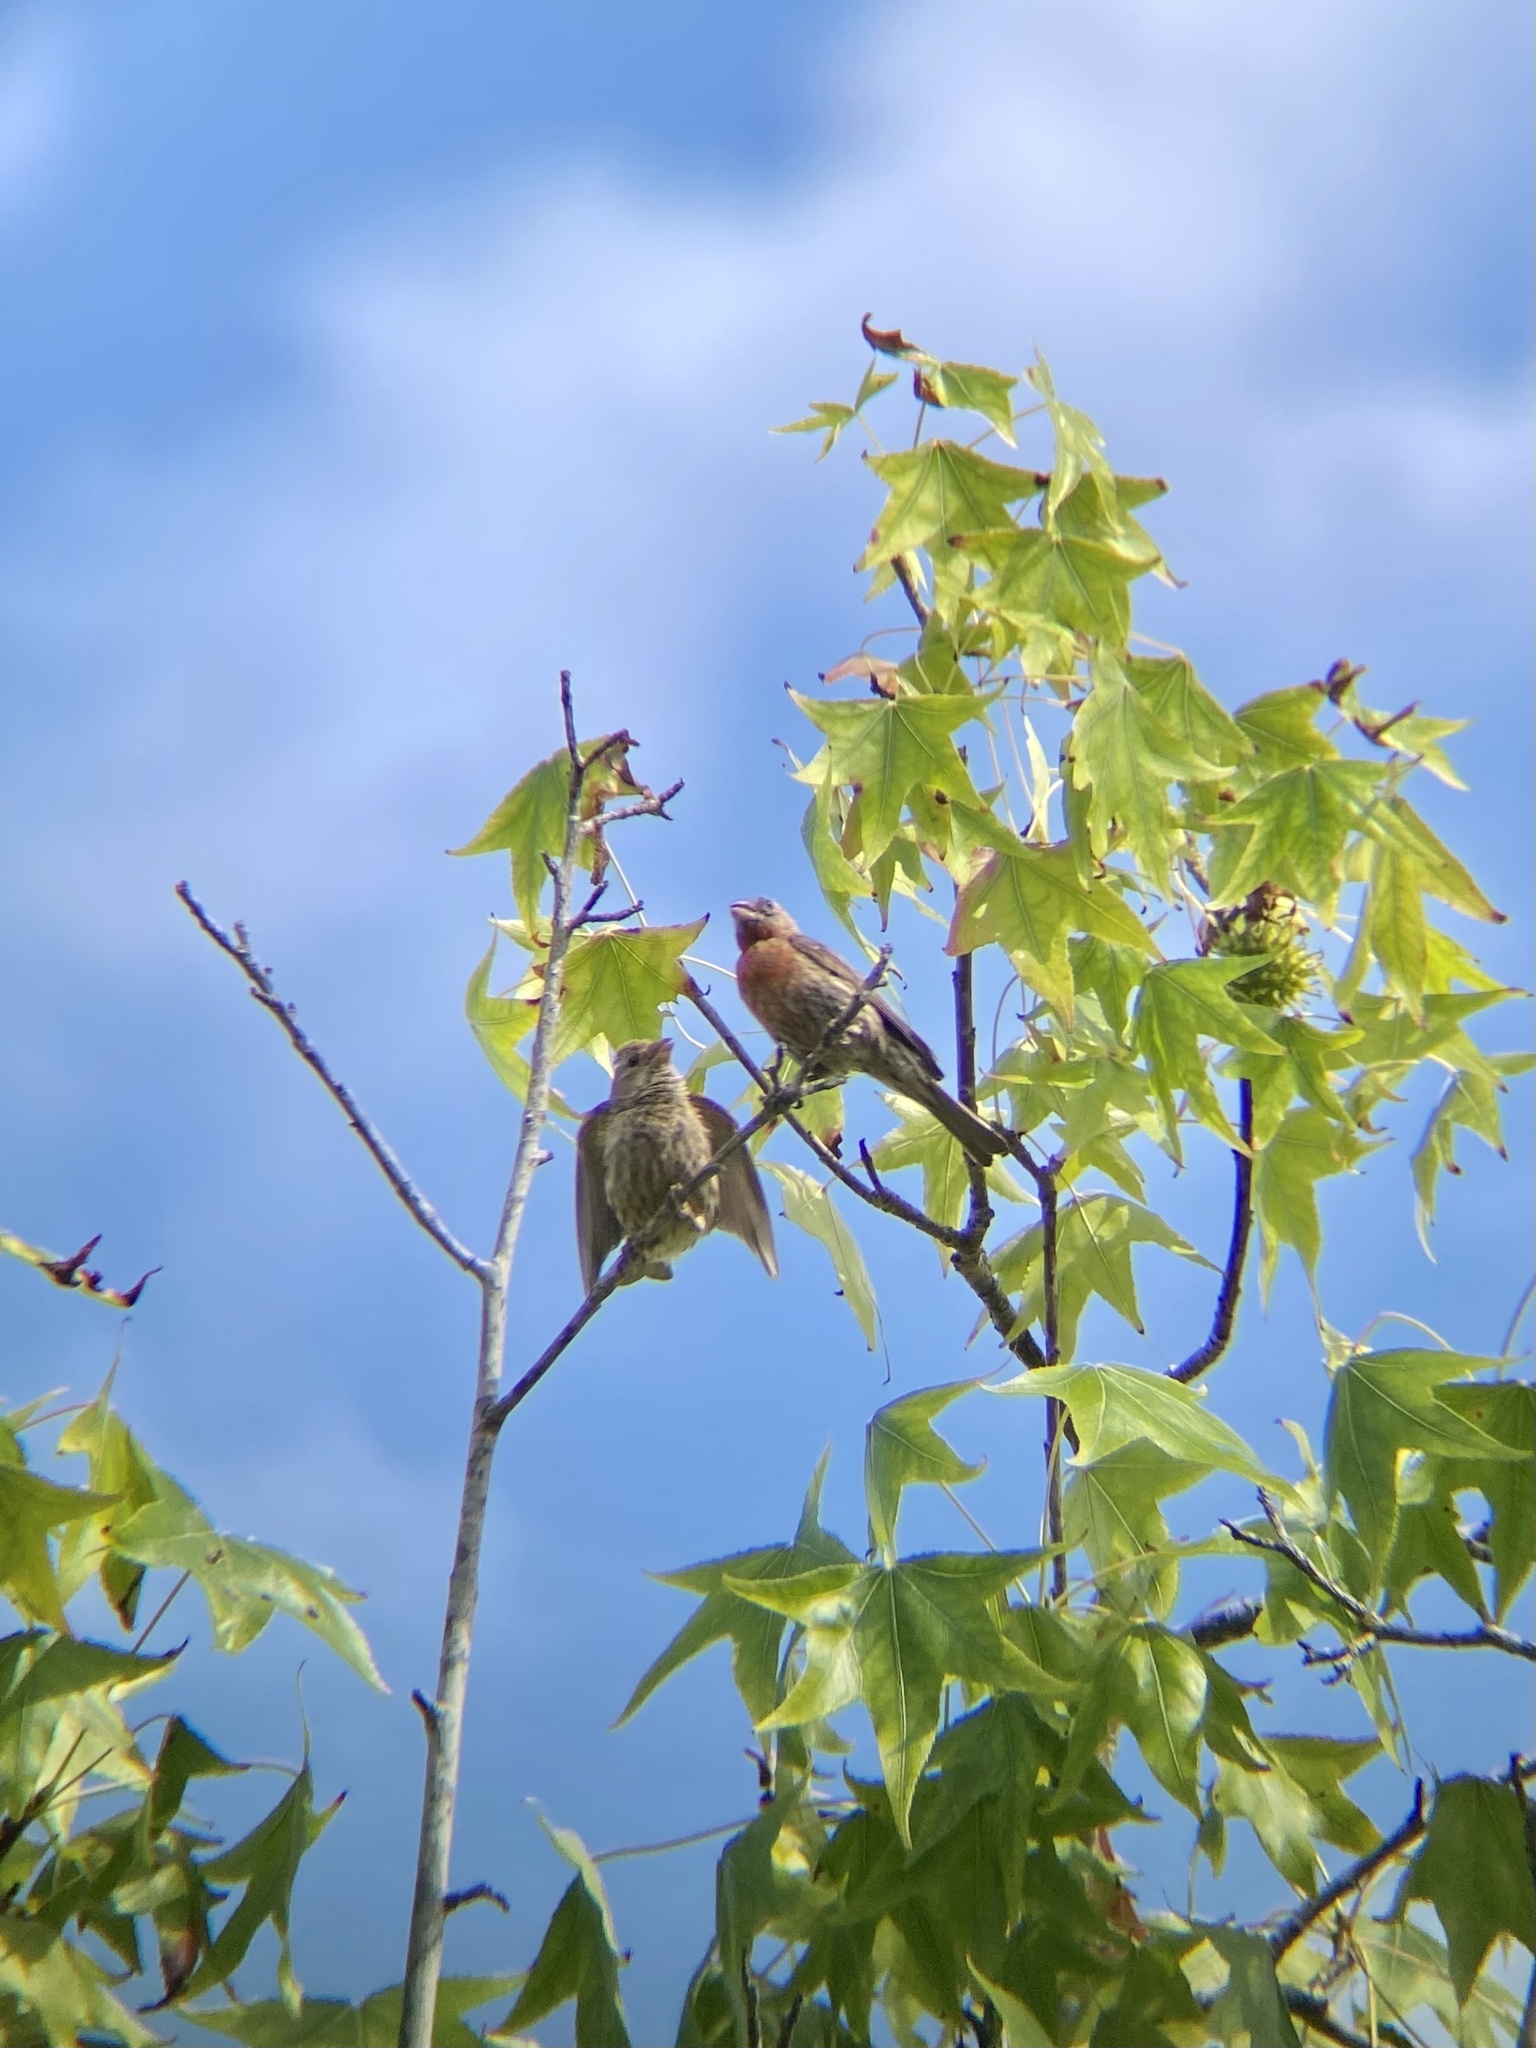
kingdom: Animalia
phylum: Chordata
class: Aves
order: Passeriformes
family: Fringillidae
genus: Haemorhous
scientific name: Haemorhous mexicanus
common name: House finch
